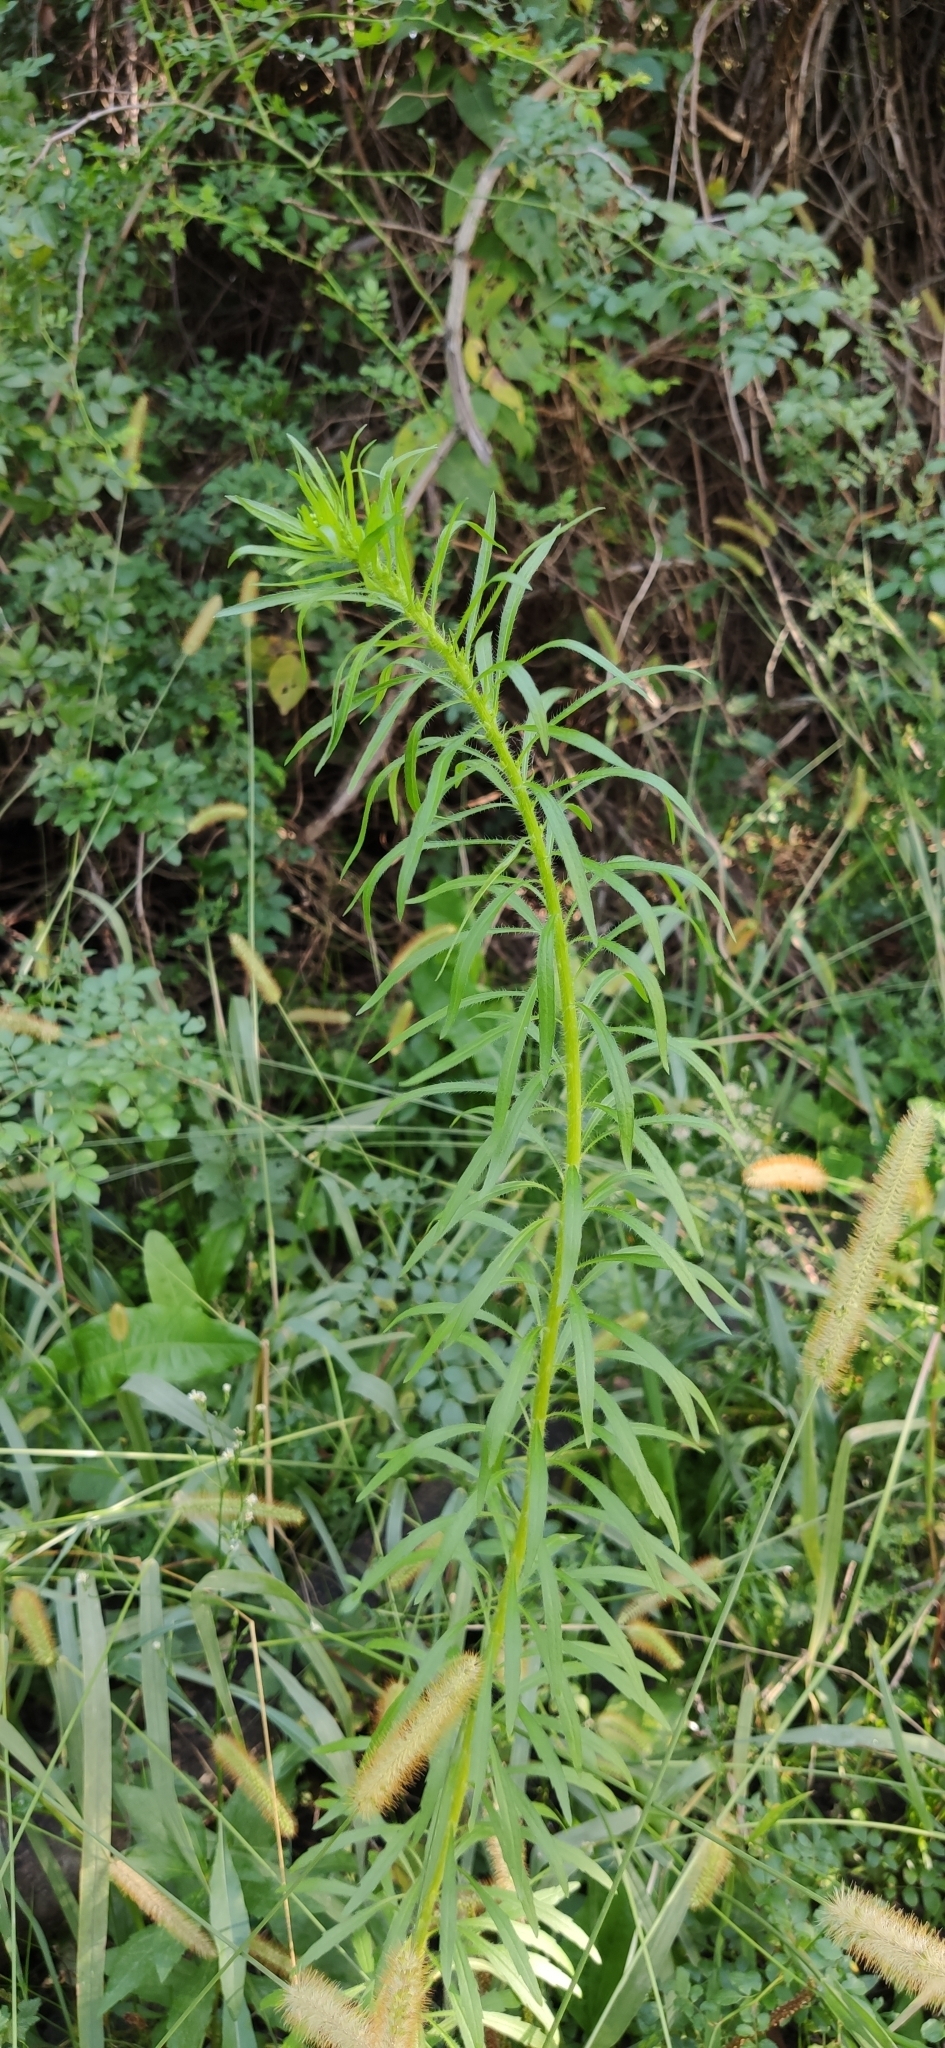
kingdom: Plantae
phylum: Tracheophyta
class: Magnoliopsida
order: Asterales
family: Asteraceae
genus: Erigeron
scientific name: Erigeron canadensis
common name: Canadian fleabane
